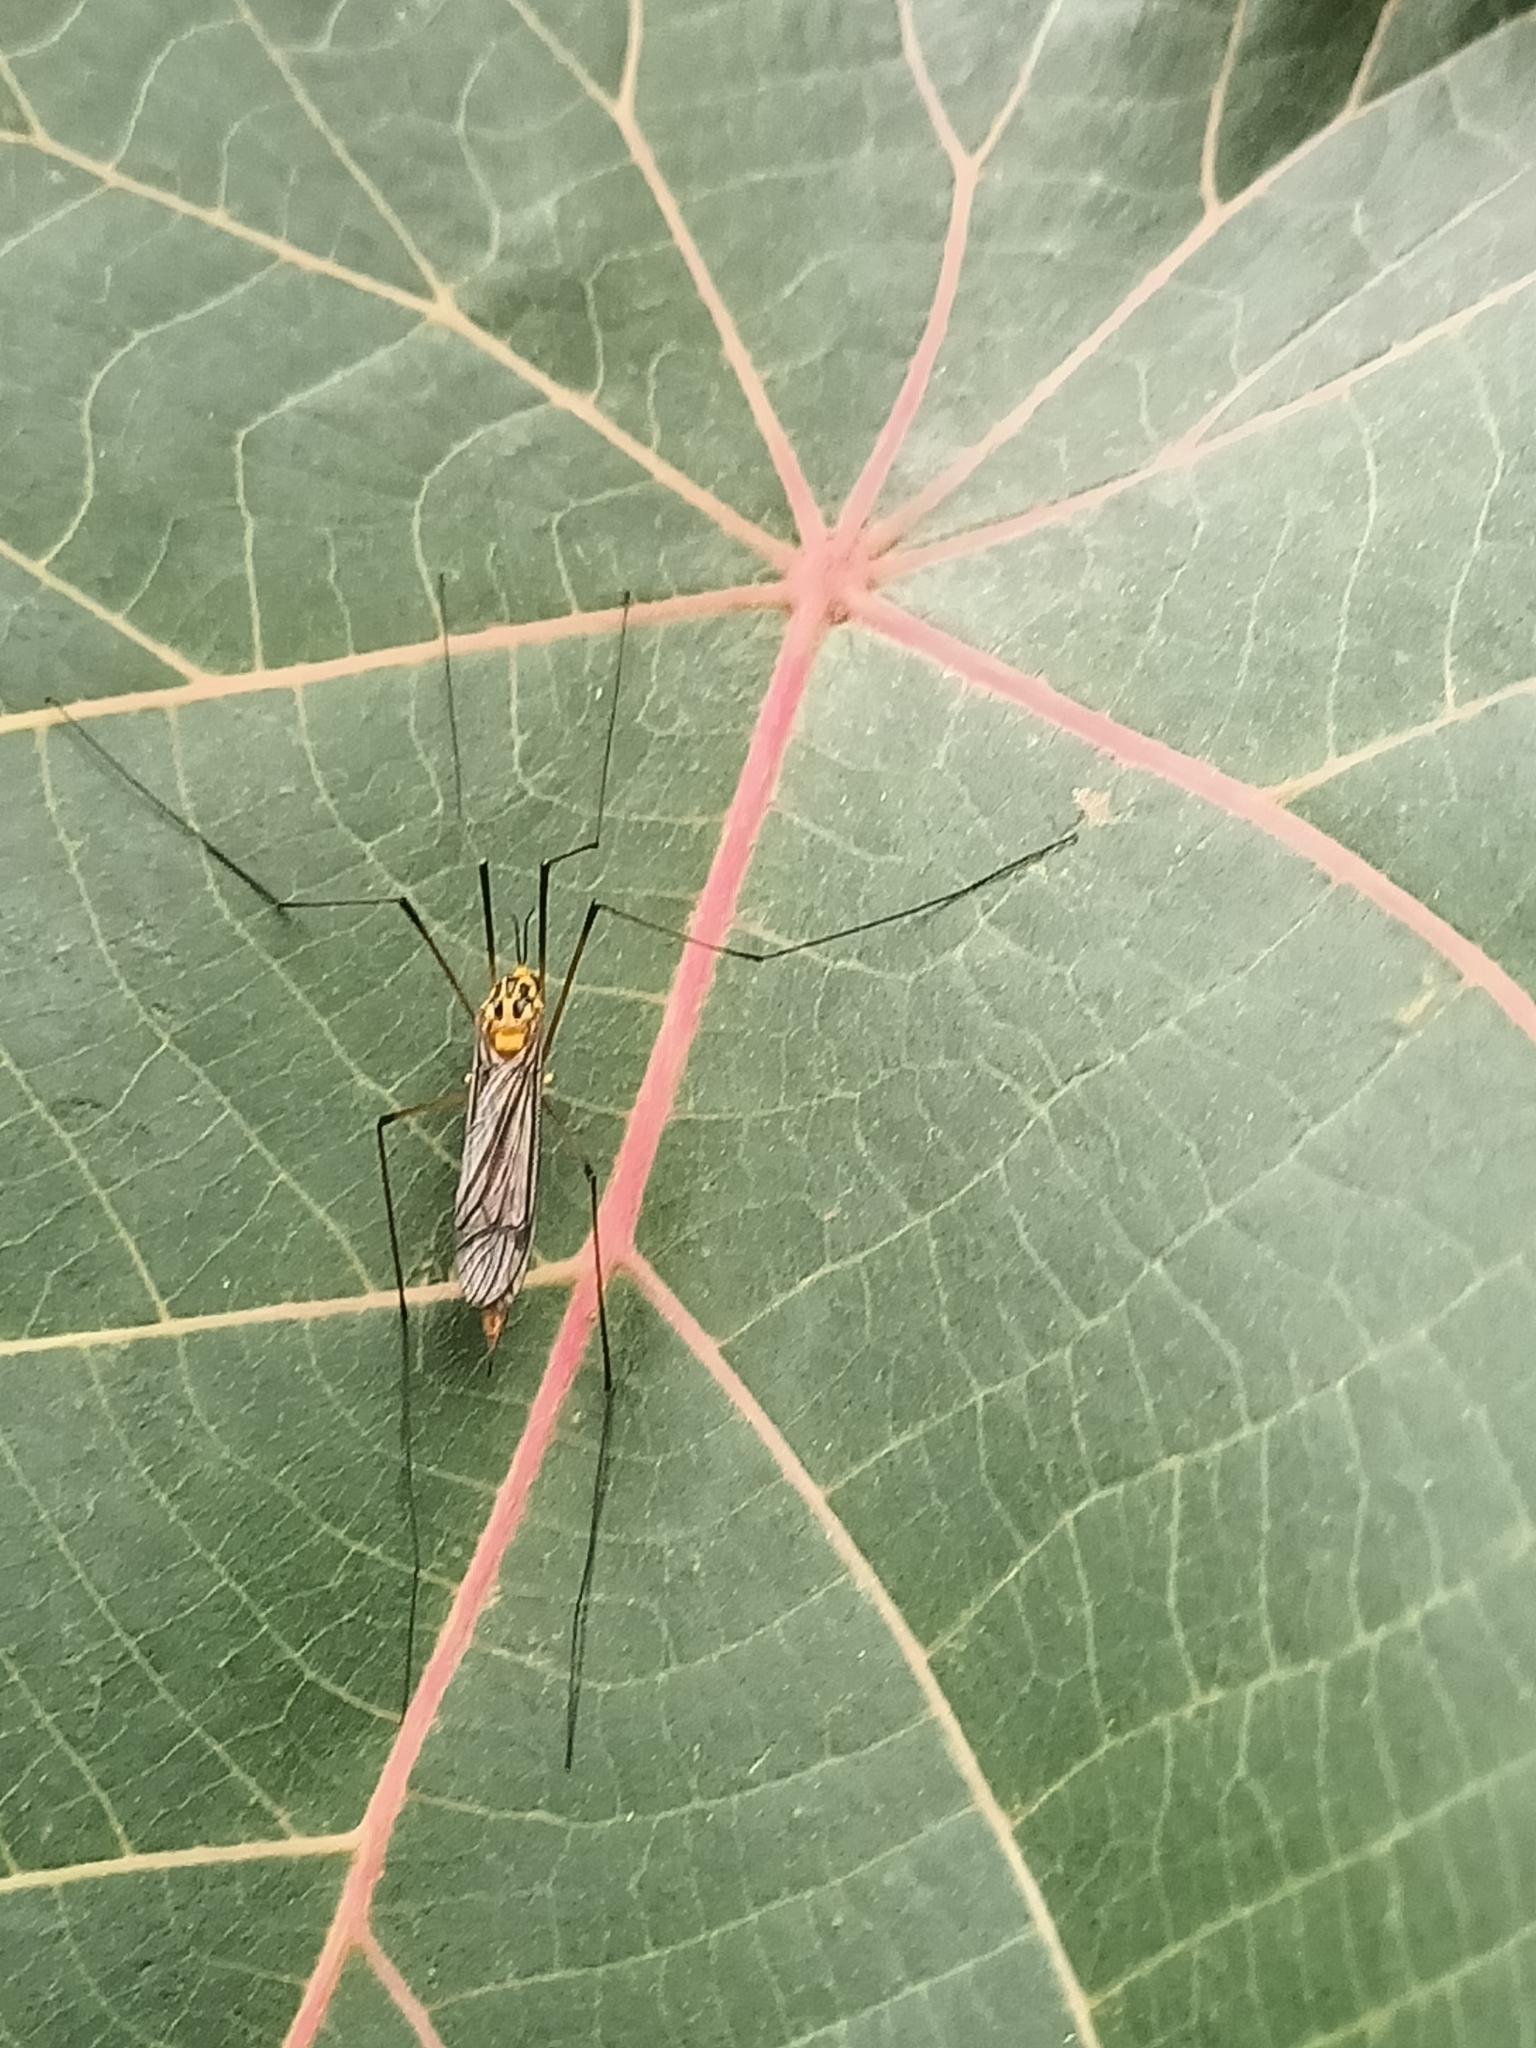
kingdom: Animalia
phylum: Arthropoda
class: Insecta
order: Diptera
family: Tipulidae
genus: Nephrotoma
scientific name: Nephrotoma australasiae
